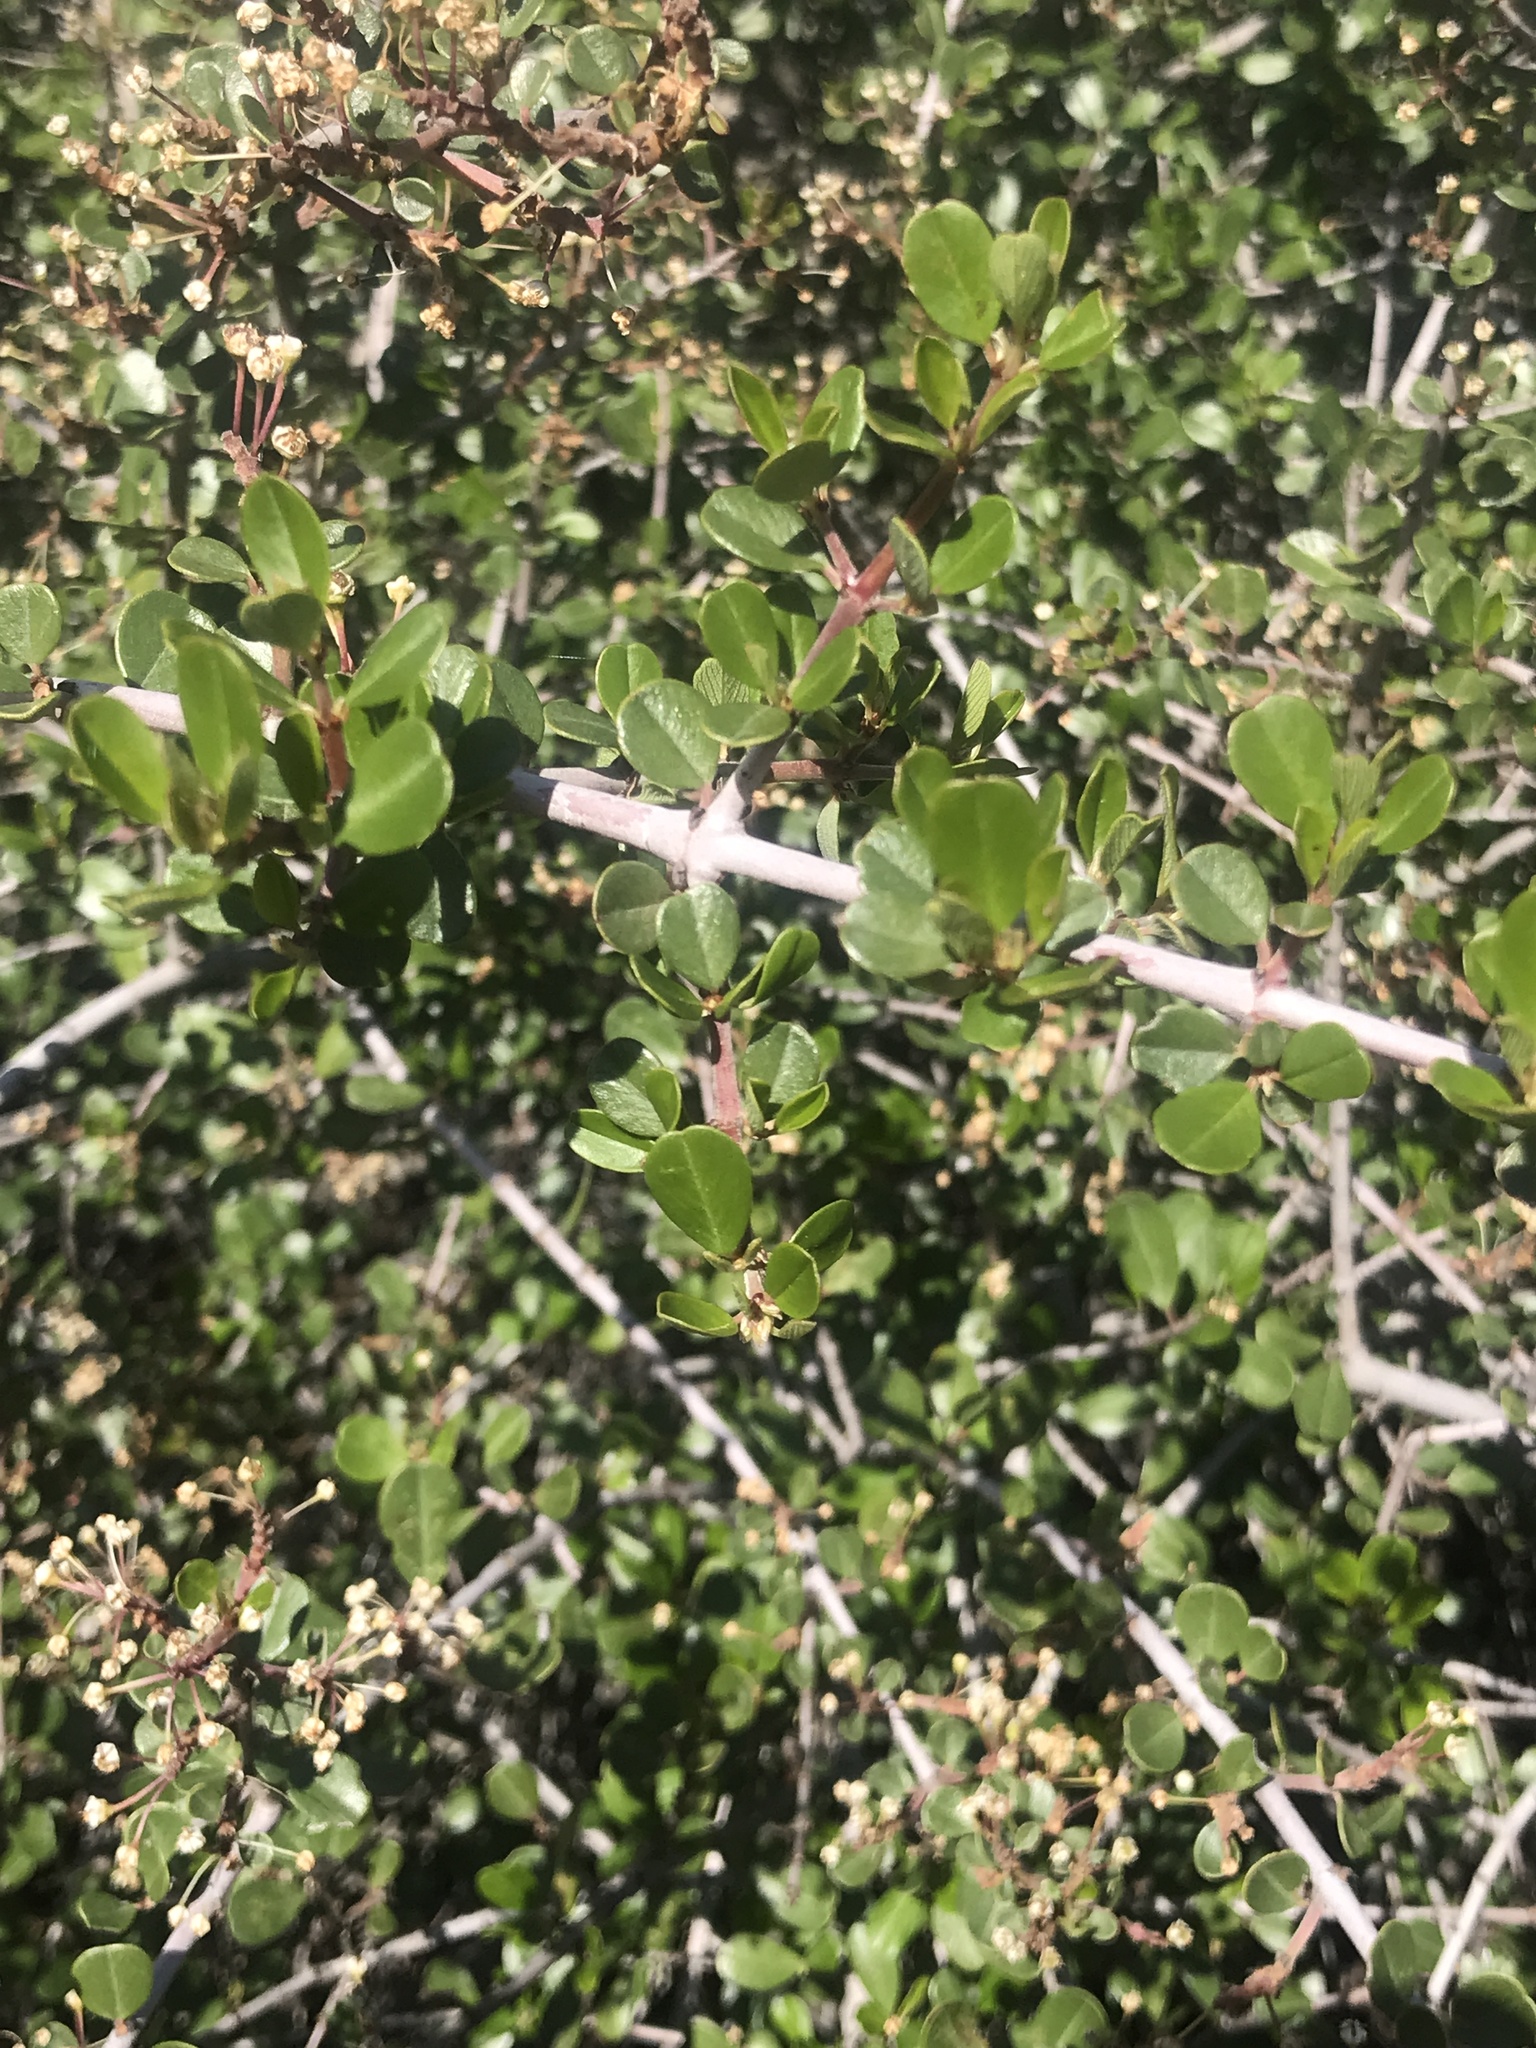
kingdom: Plantae
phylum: Tracheophyta
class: Magnoliopsida
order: Rosales
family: Rhamnaceae
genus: Ceanothus
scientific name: Ceanothus cuneatus
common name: Cuneate ceanothus
